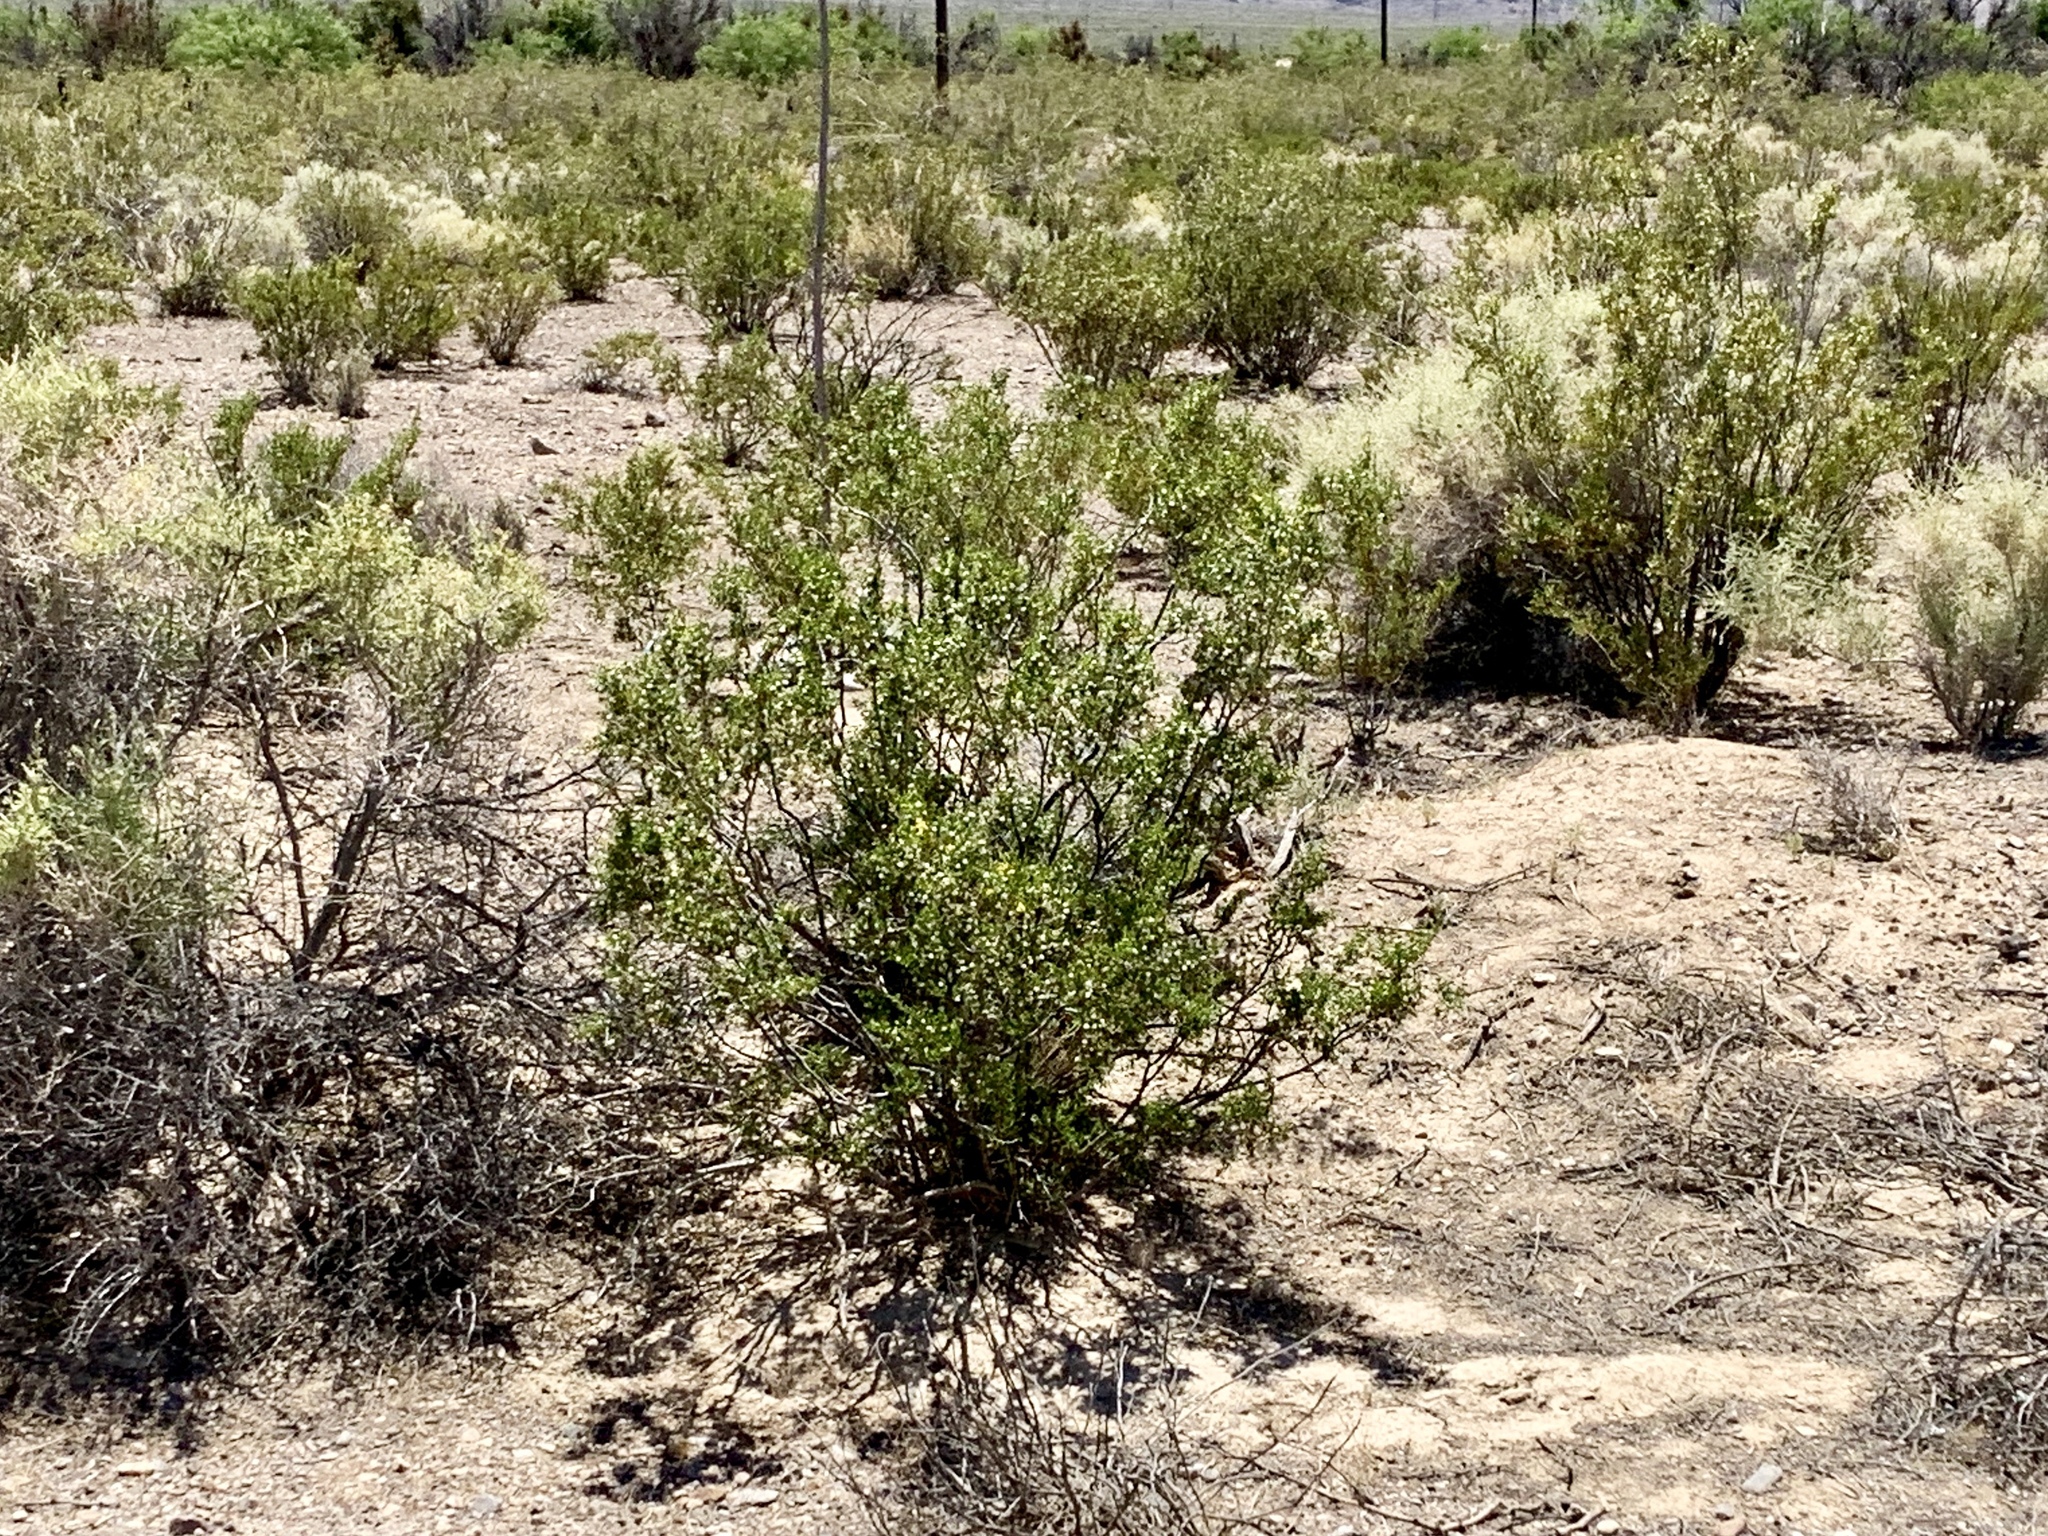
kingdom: Plantae
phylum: Tracheophyta
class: Magnoliopsida
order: Zygophyllales
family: Zygophyllaceae
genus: Larrea
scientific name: Larrea tridentata
